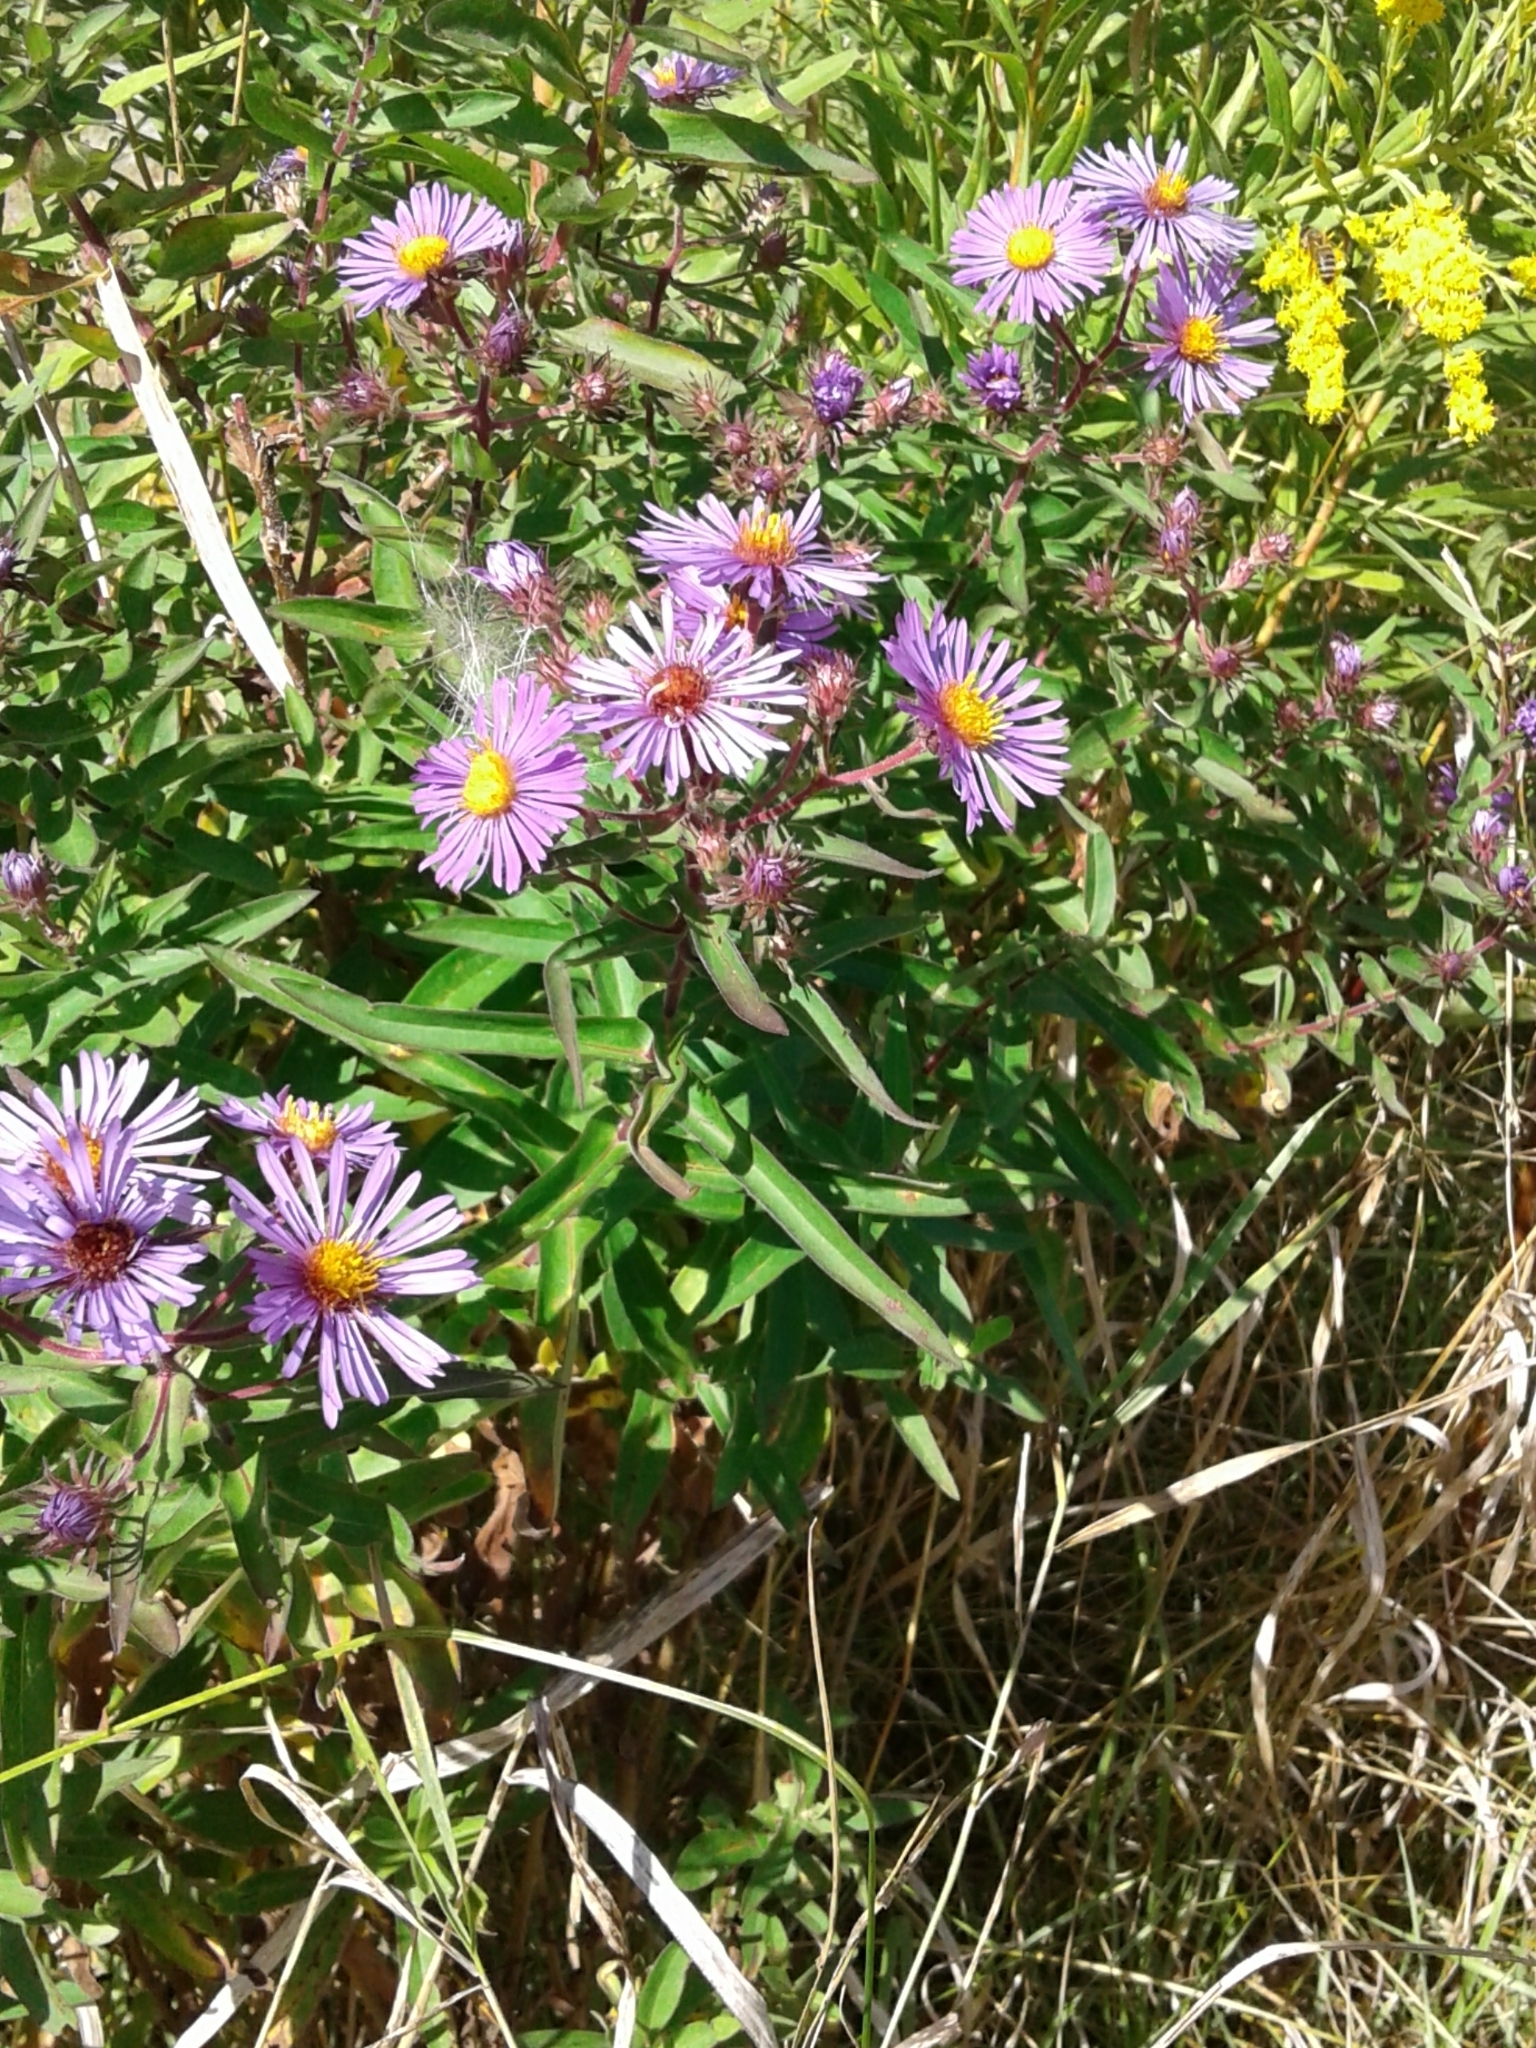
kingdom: Plantae
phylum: Tracheophyta
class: Magnoliopsida
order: Asterales
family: Asteraceae
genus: Symphyotrichum
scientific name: Symphyotrichum novae-angliae
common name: Michaelmas daisy
